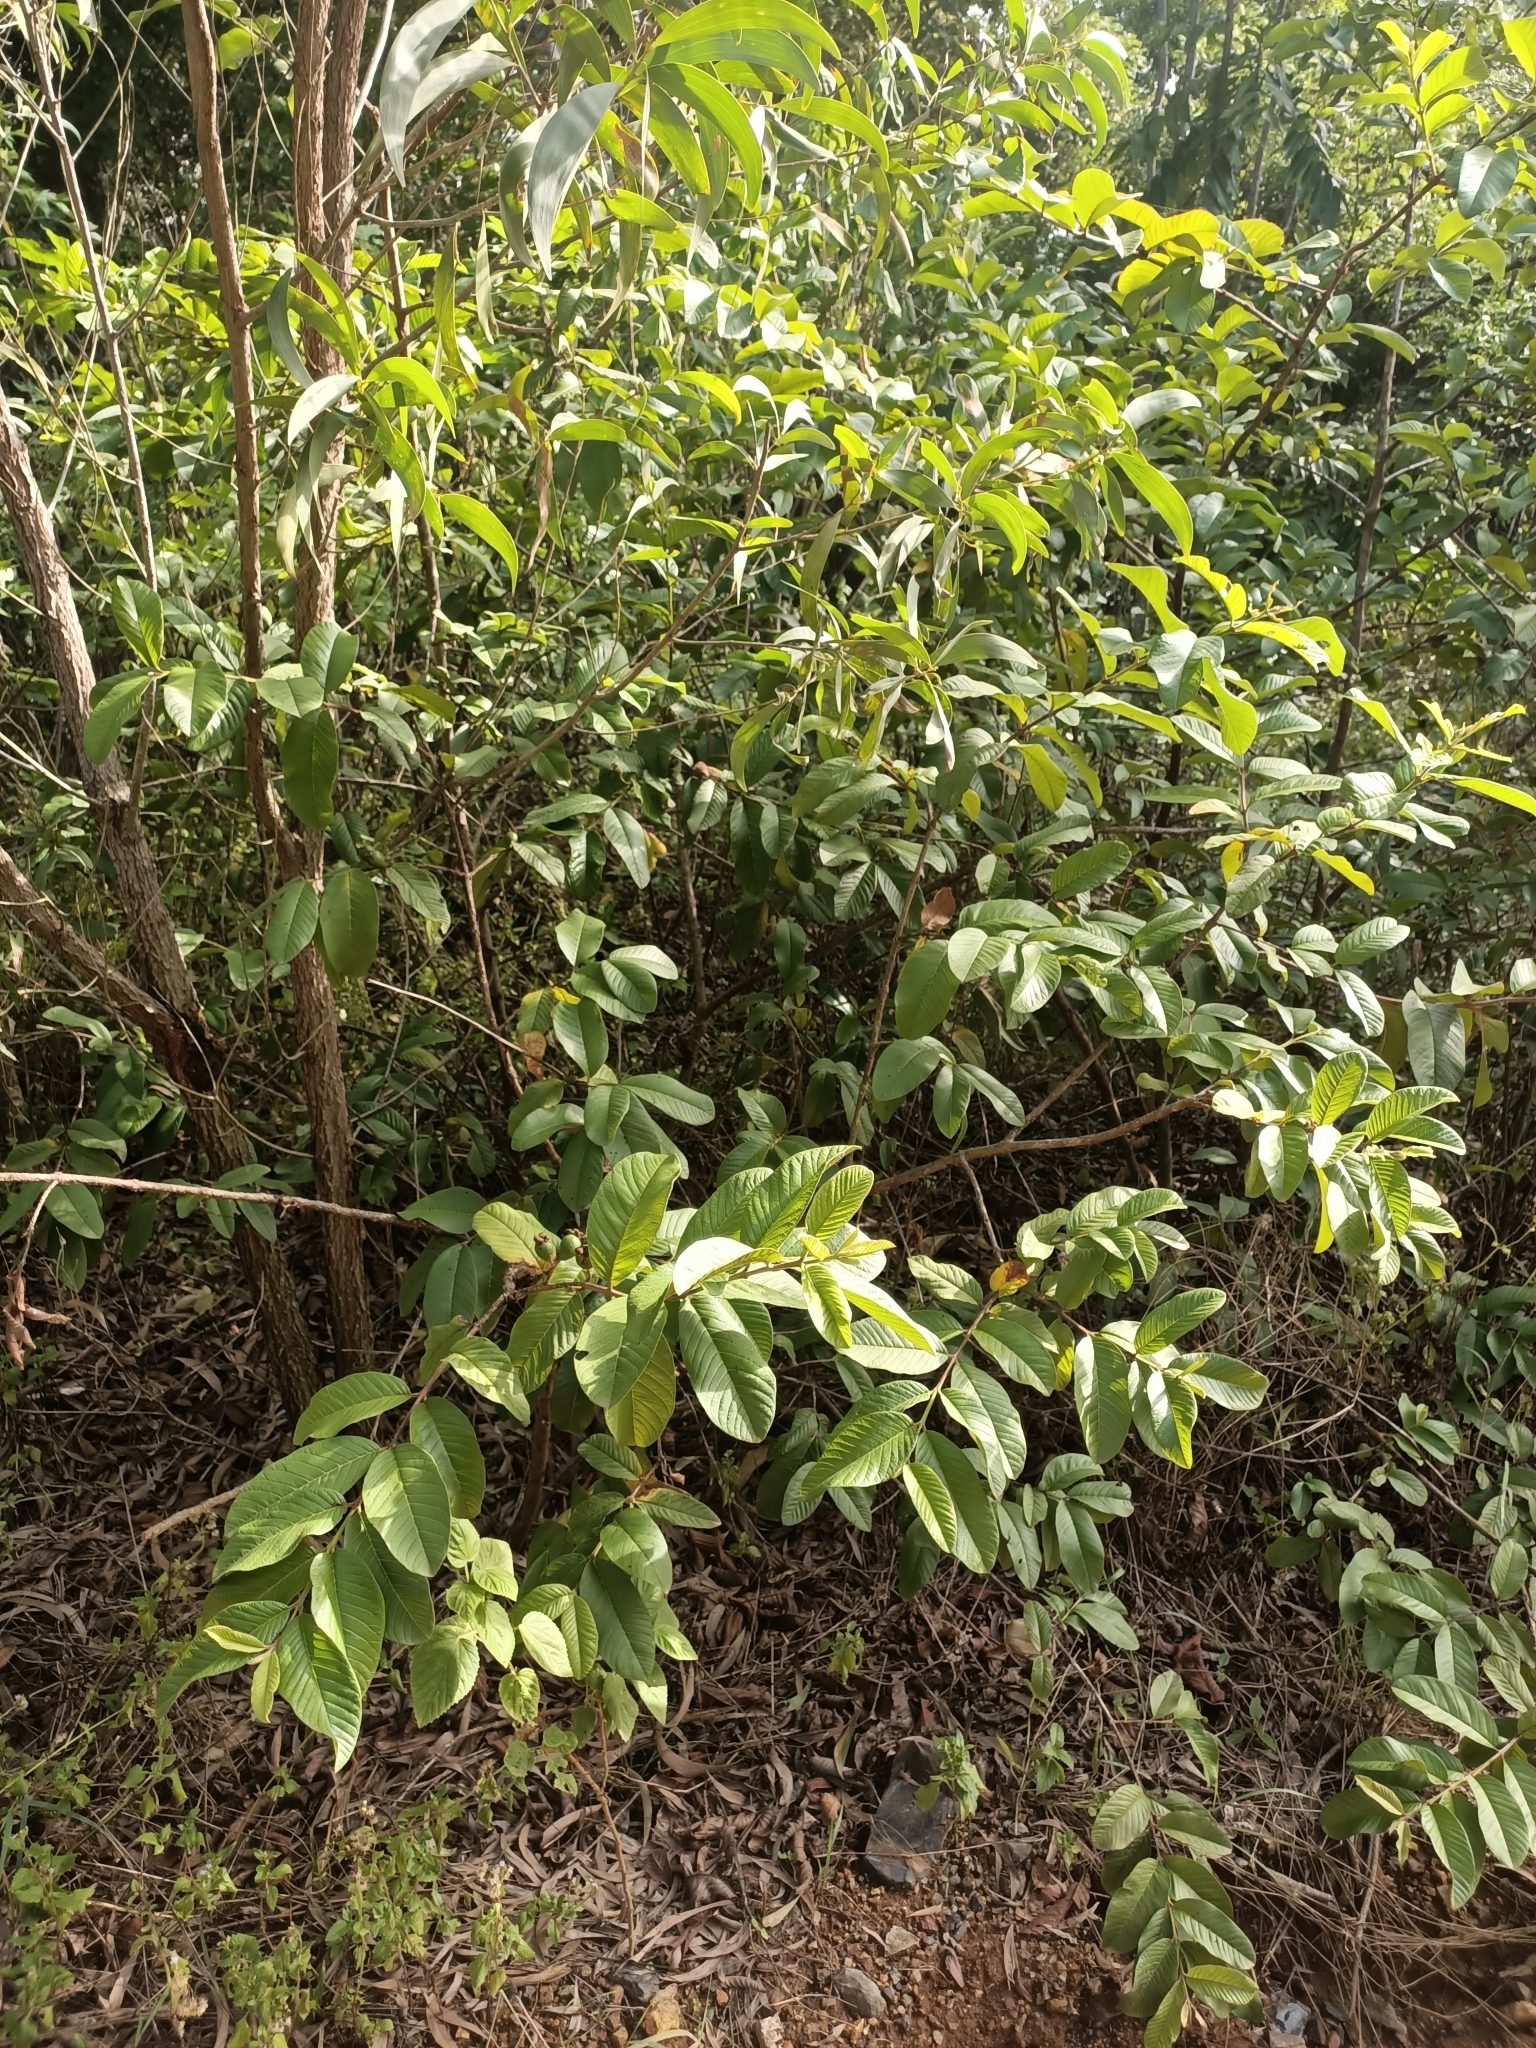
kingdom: Plantae
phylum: Tracheophyta
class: Magnoliopsida
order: Myrtales
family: Myrtaceae
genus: Psidium
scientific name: Psidium guajava
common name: Guava
